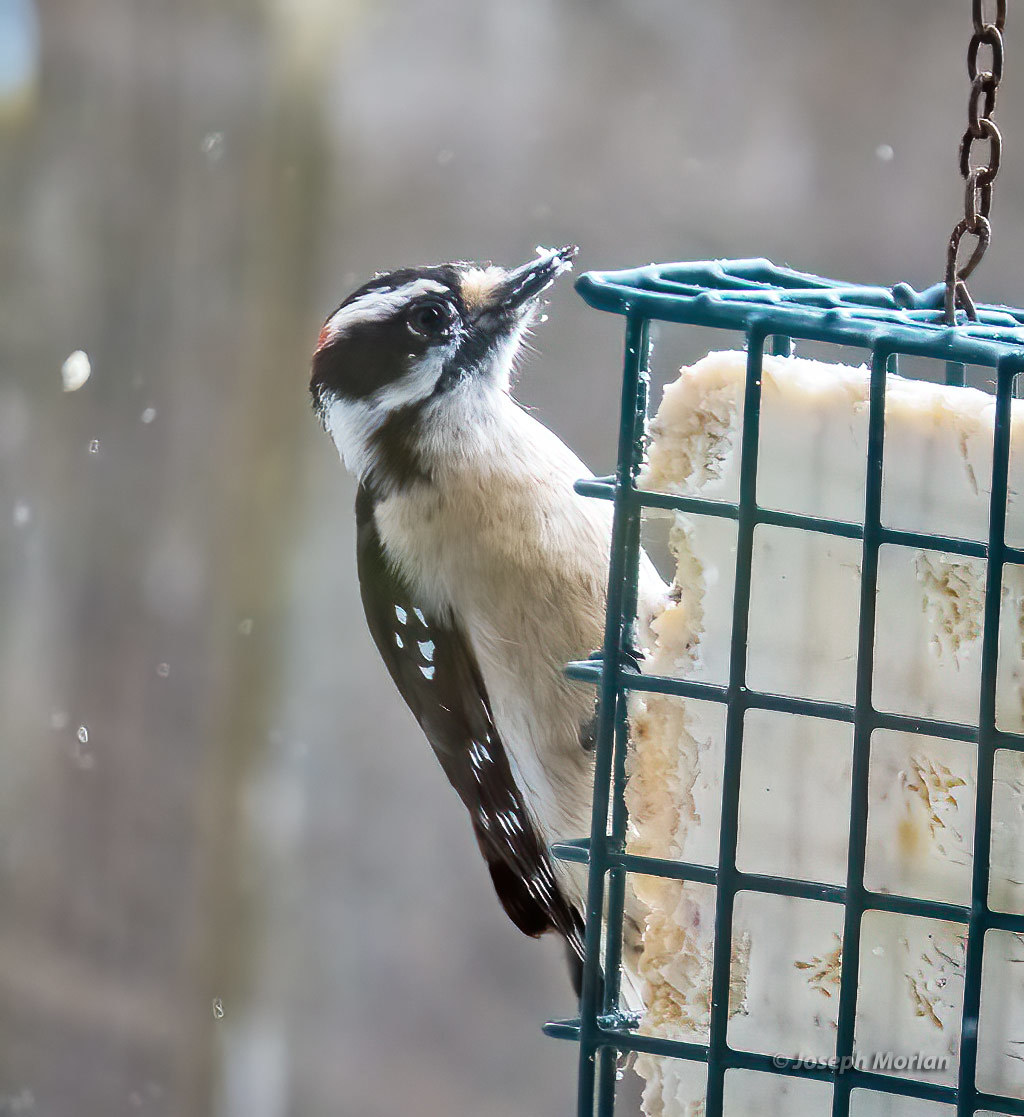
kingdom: Animalia
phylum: Chordata
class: Aves
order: Piciformes
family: Picidae
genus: Dryobates
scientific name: Dryobates pubescens
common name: Downy woodpecker
